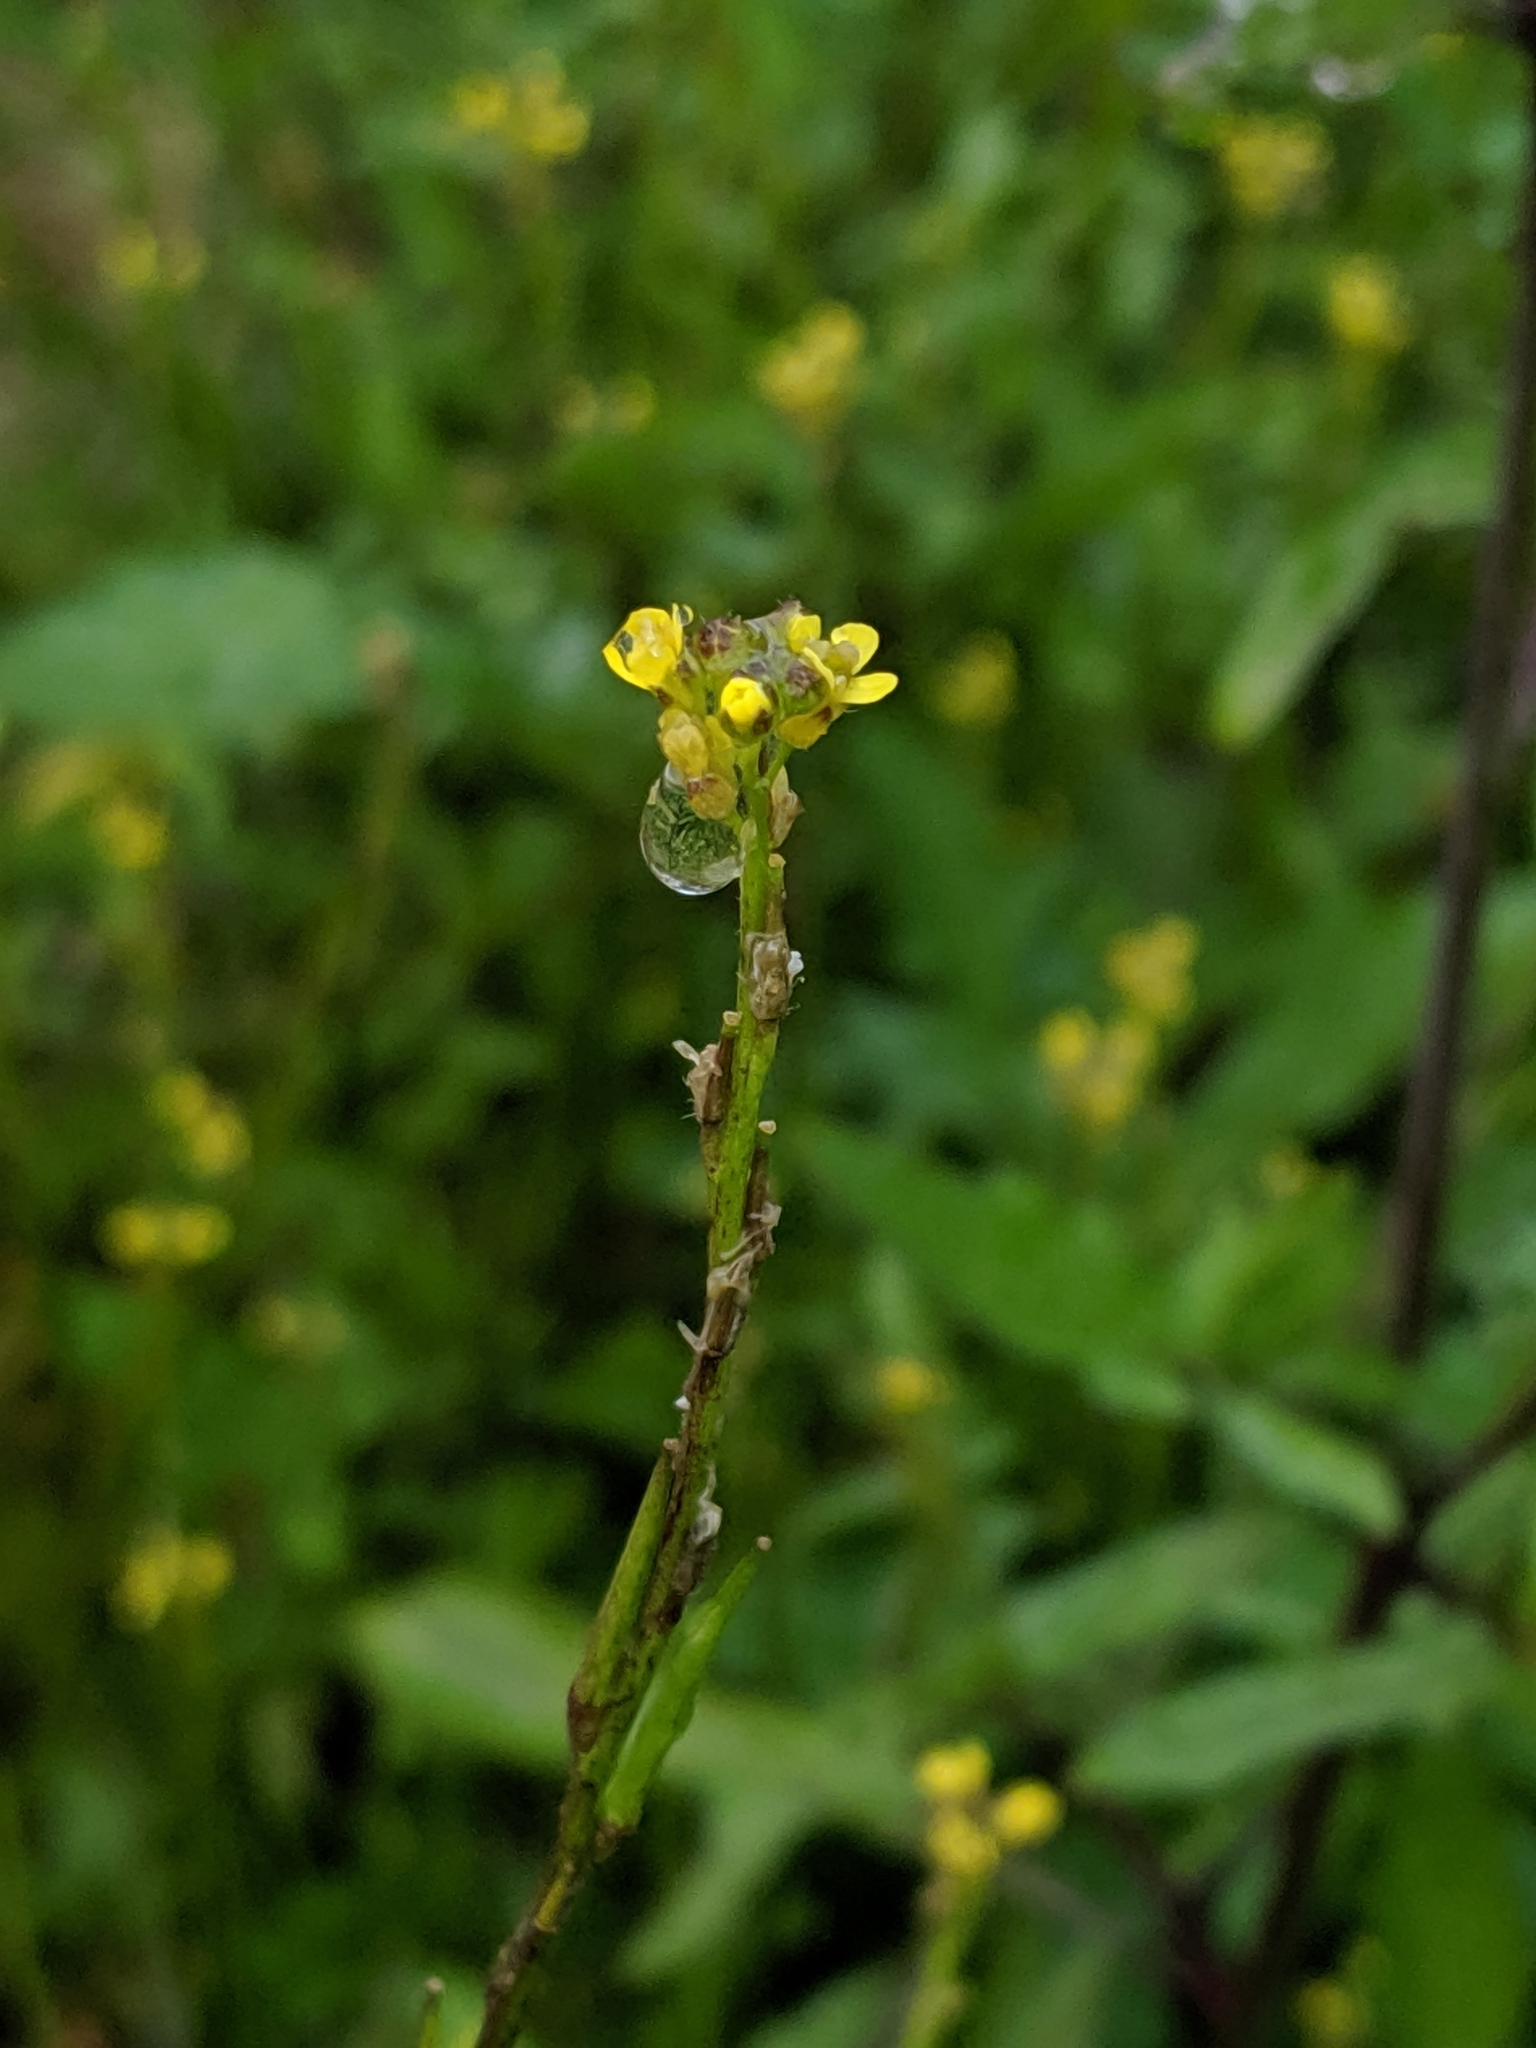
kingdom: Plantae
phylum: Tracheophyta
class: Magnoliopsida
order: Brassicales
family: Brassicaceae
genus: Sisymbrium
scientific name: Sisymbrium officinale
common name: Hedge mustard
